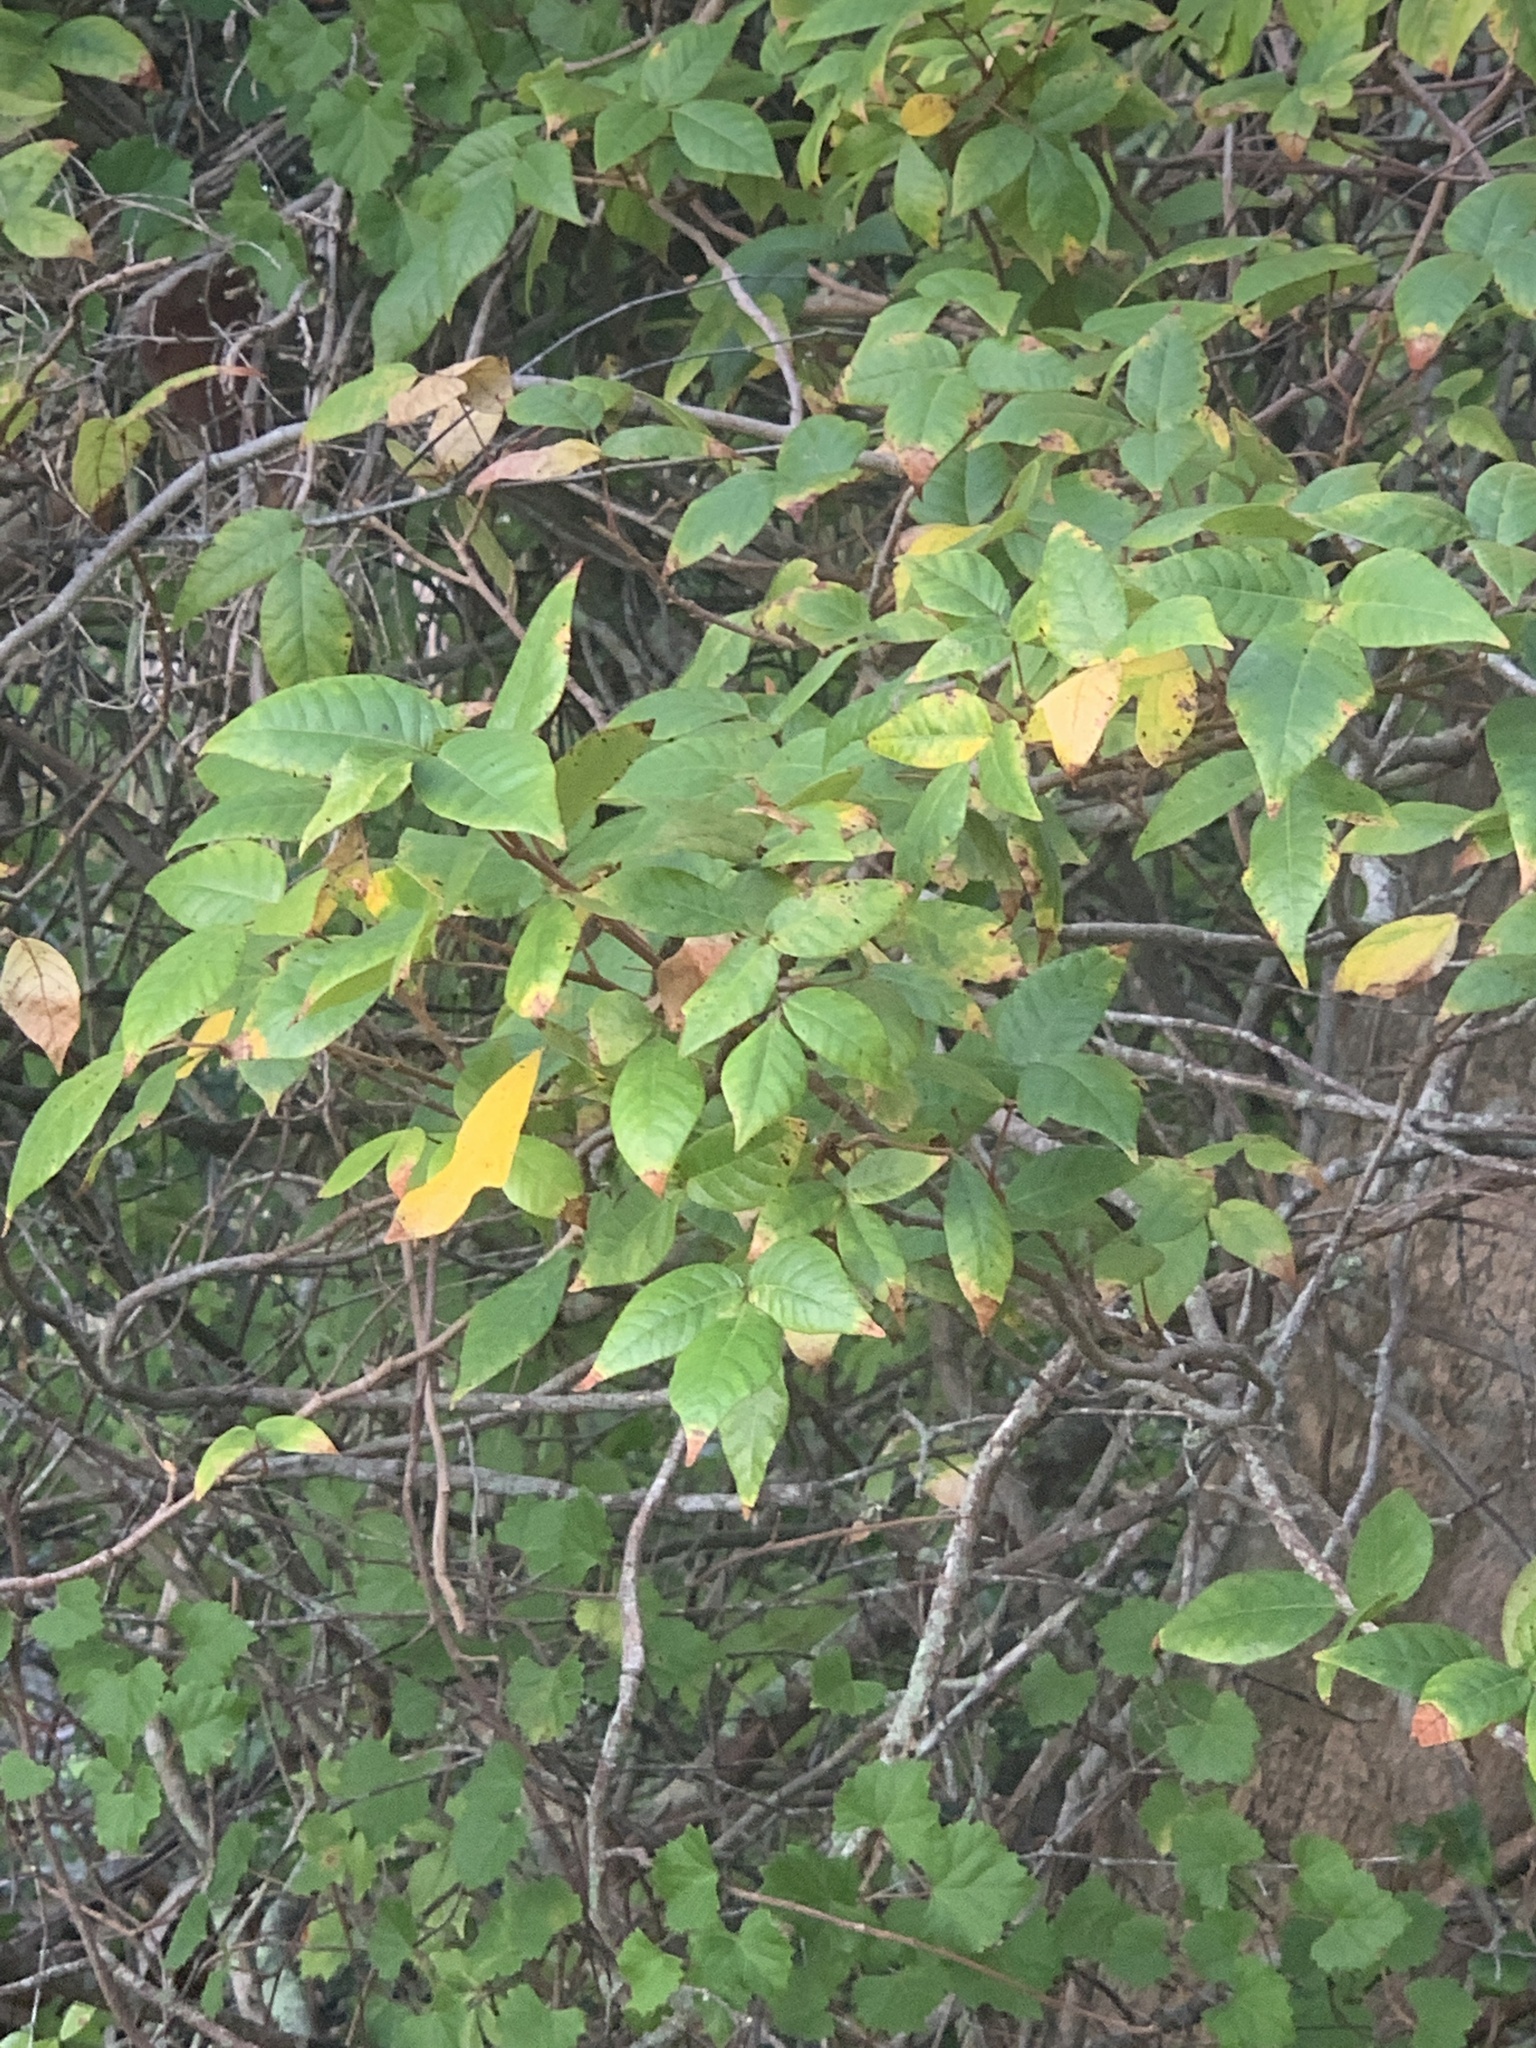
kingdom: Plantae
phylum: Tracheophyta
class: Magnoliopsida
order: Sapindales
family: Anacardiaceae
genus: Toxicodendron
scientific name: Toxicodendron radicans
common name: Poison ivy
